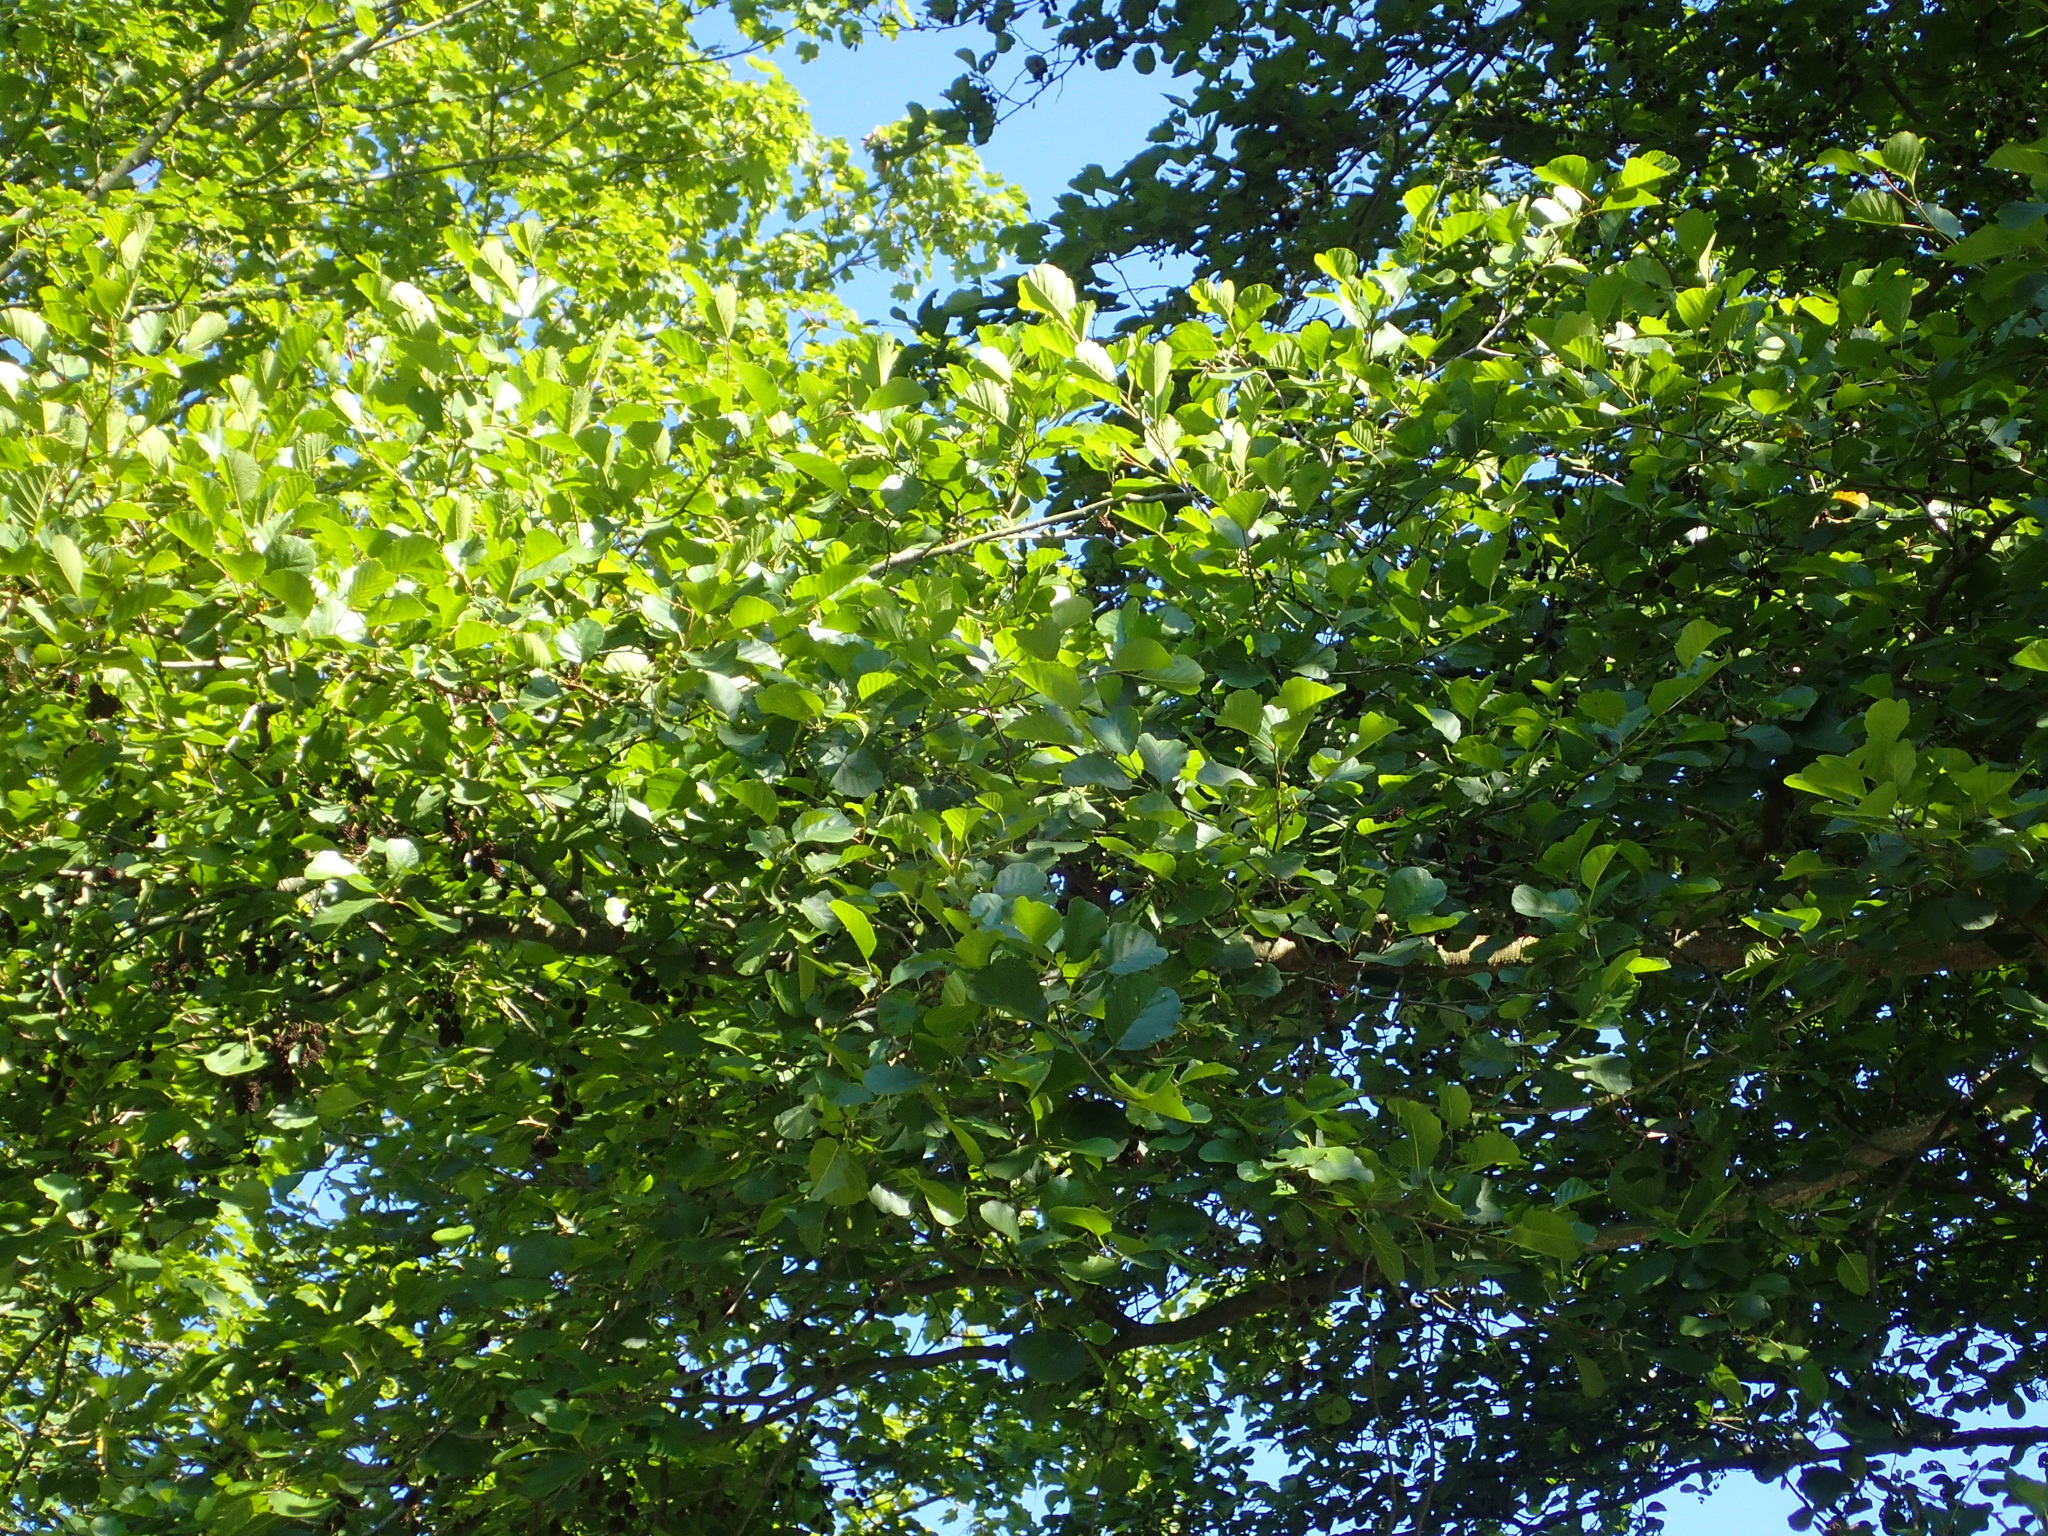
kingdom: Plantae
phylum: Tracheophyta
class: Magnoliopsida
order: Fagales
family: Betulaceae
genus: Alnus
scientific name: Alnus glutinosa
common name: Black alder
